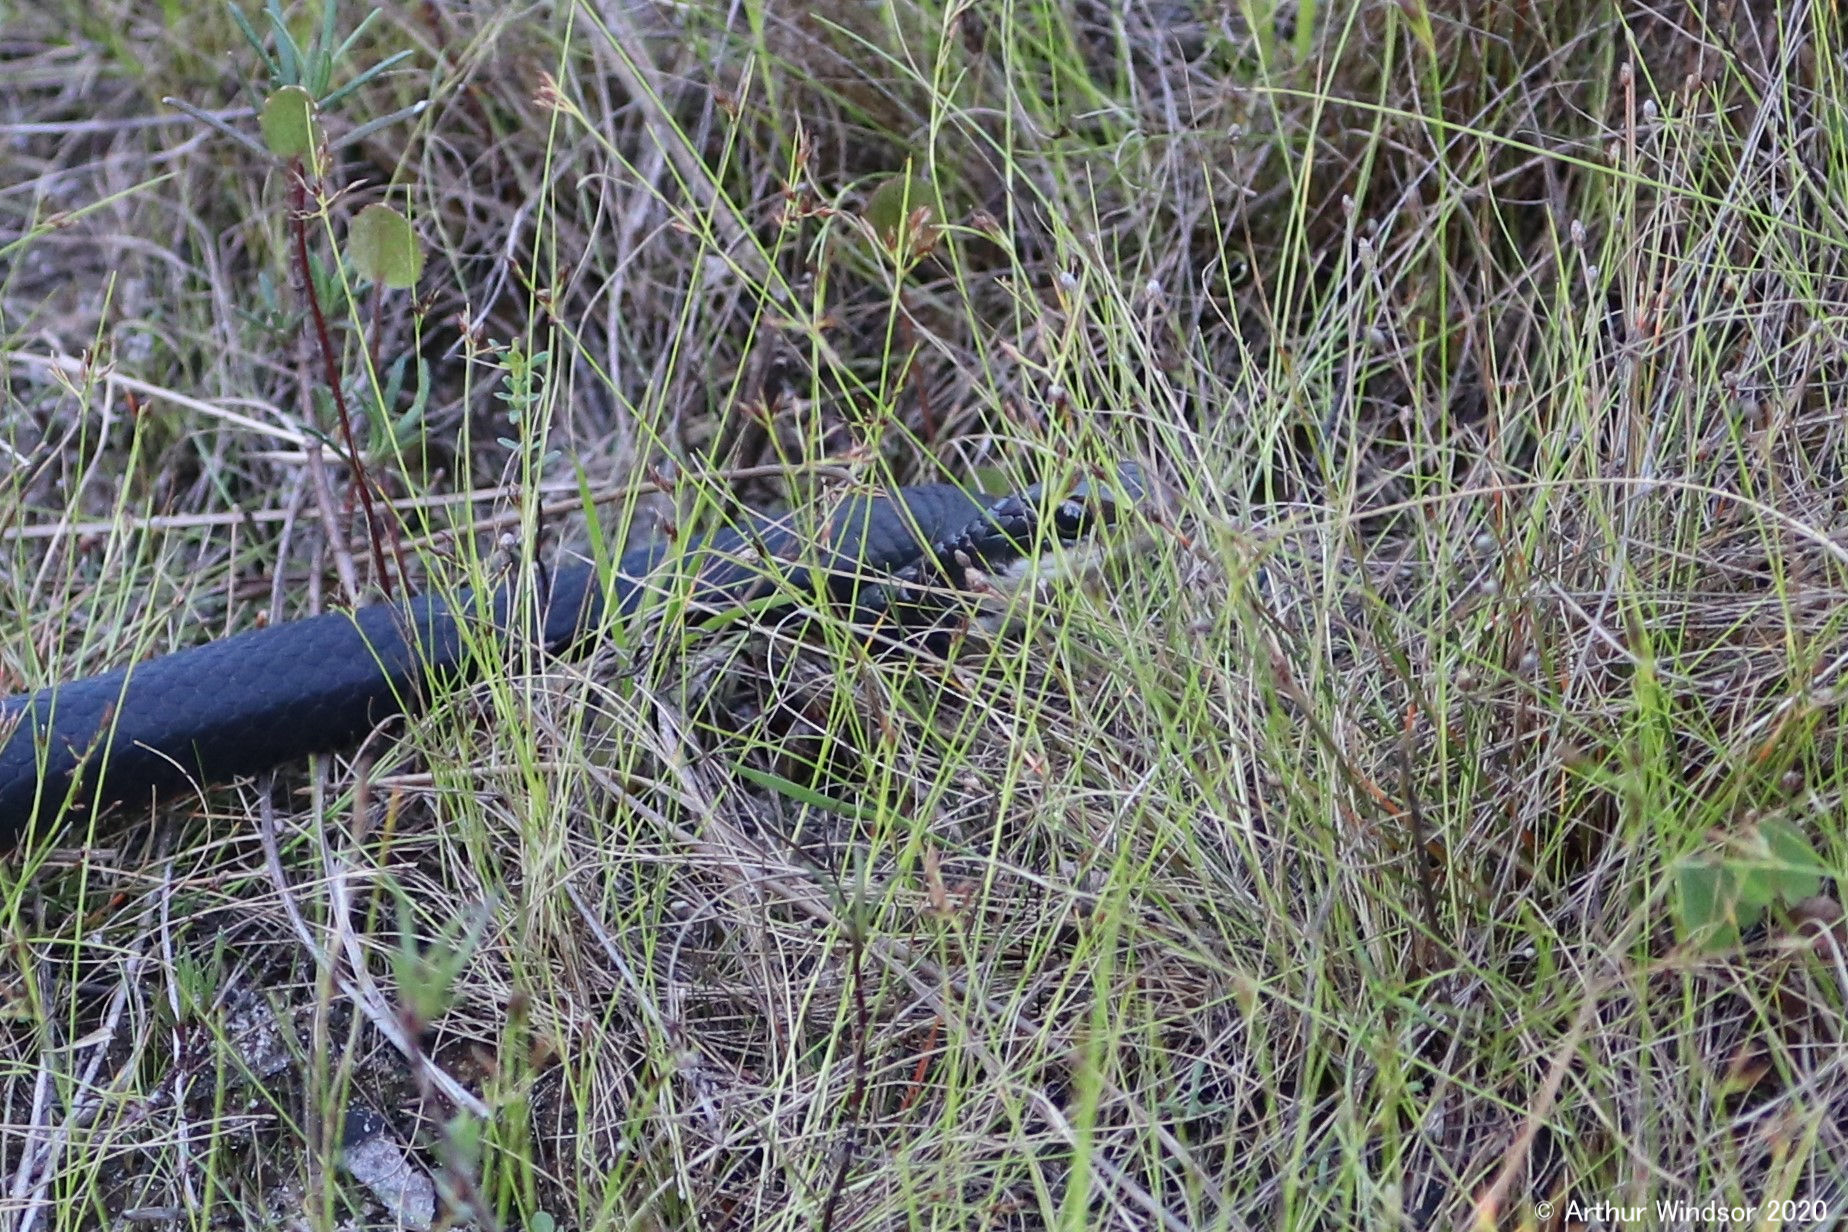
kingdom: Animalia
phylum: Chordata
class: Squamata
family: Colubridae
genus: Coluber
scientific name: Coluber constrictor
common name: Eastern racer
